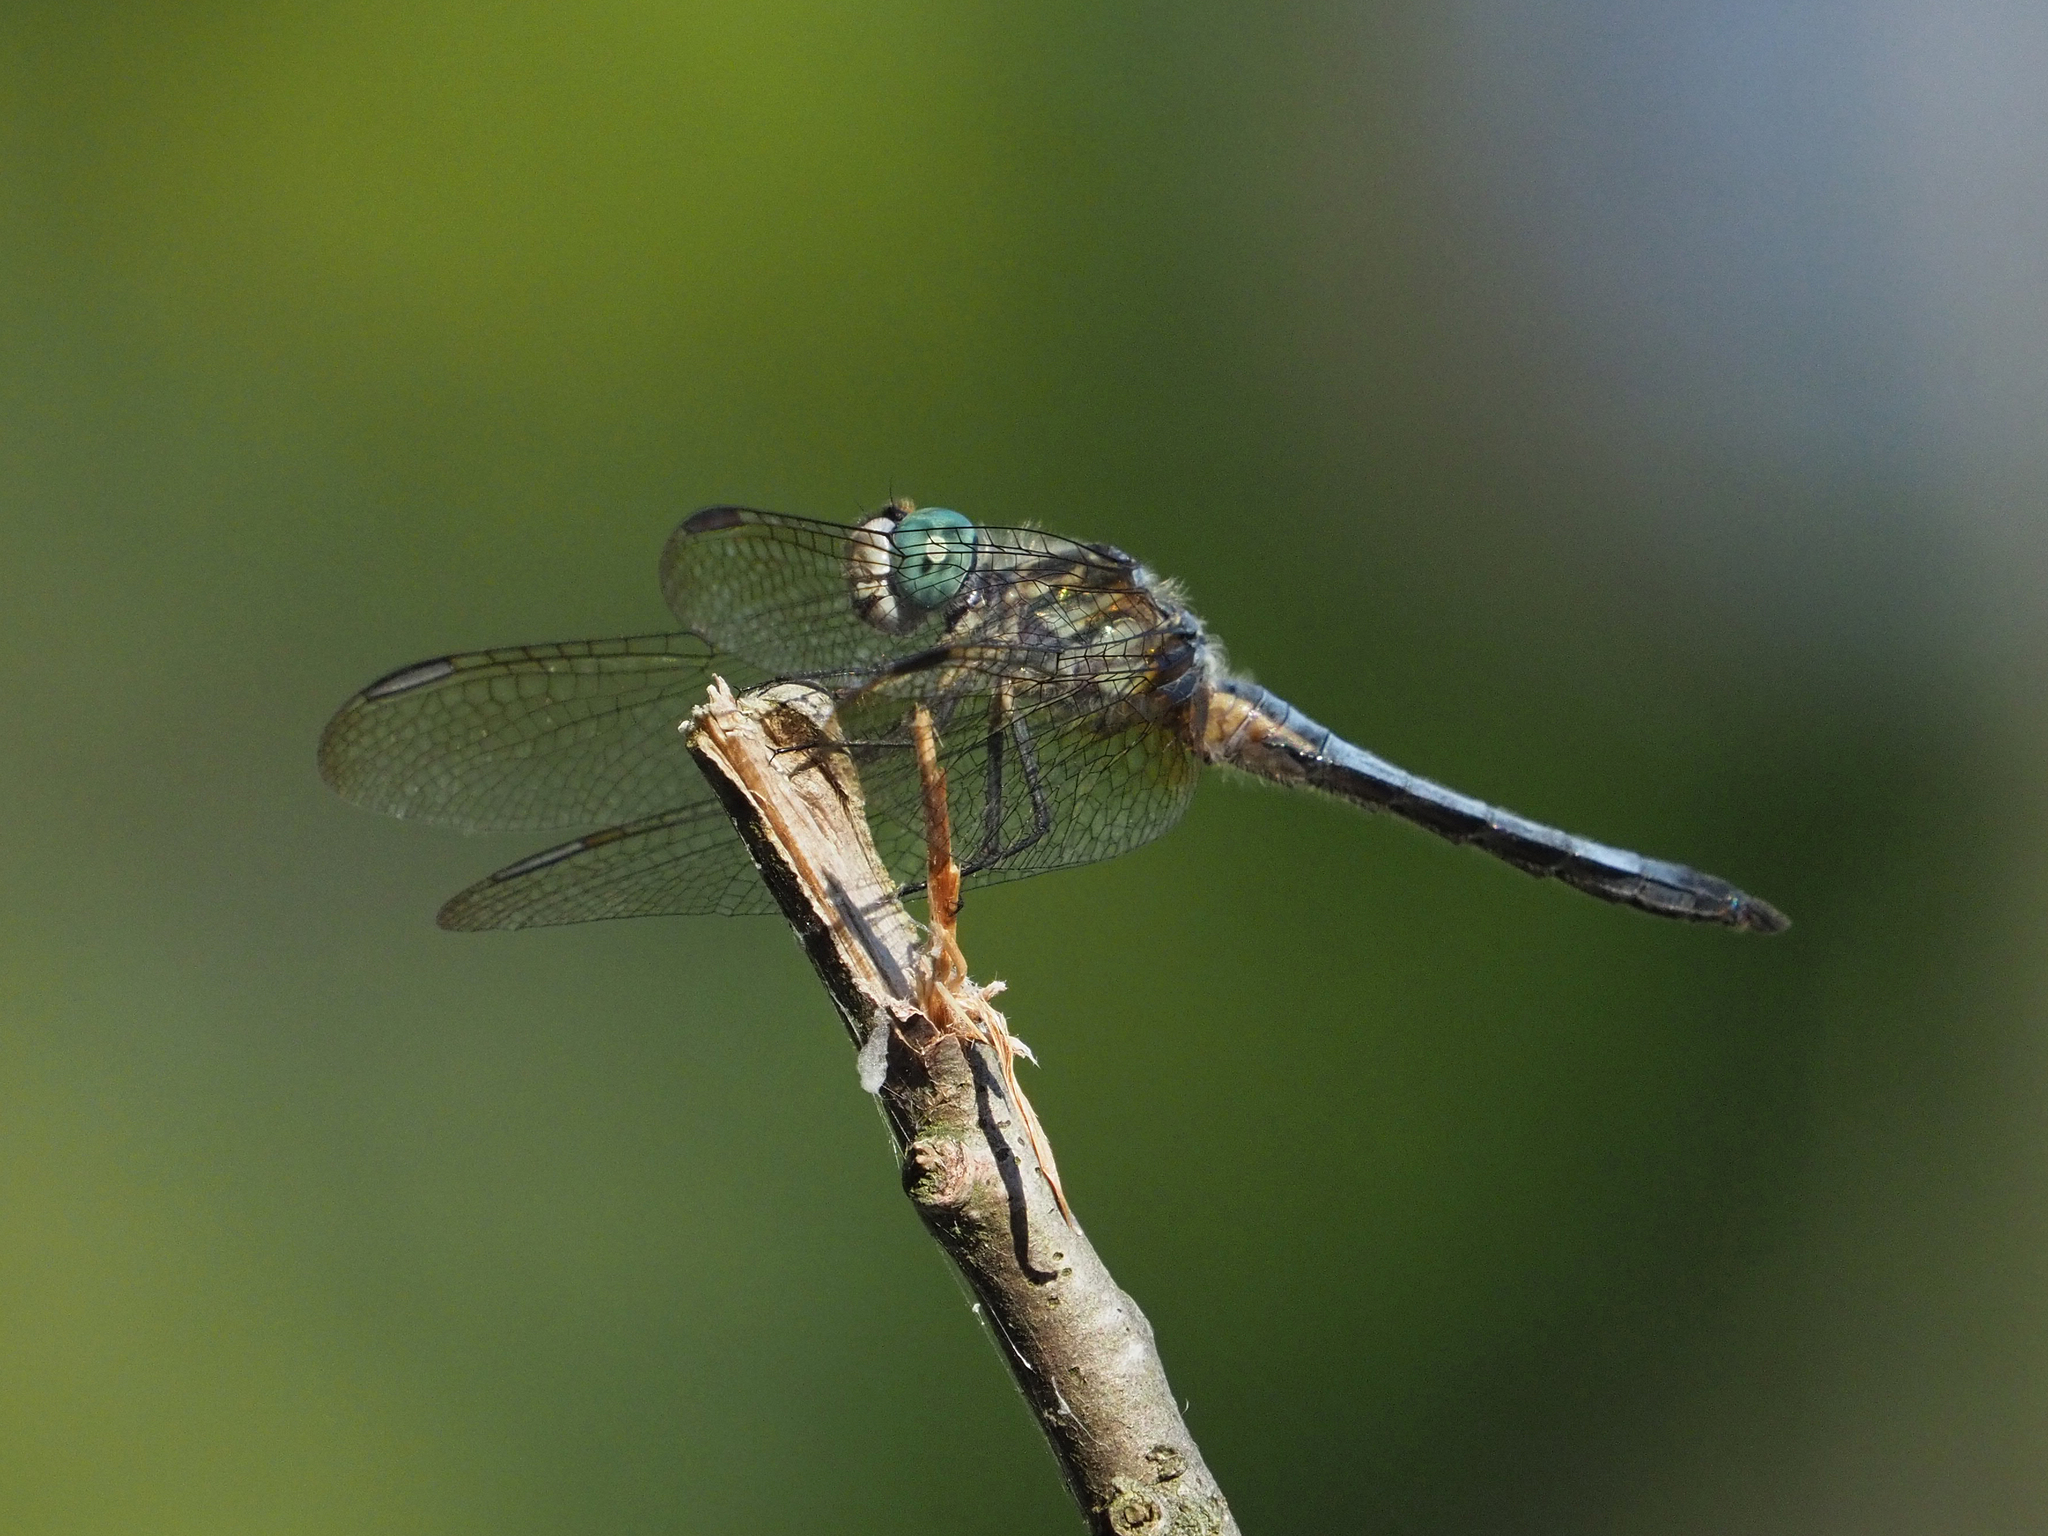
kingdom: Animalia
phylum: Arthropoda
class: Insecta
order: Odonata
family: Libellulidae
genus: Pachydiplax
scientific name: Pachydiplax longipennis
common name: Blue dasher
